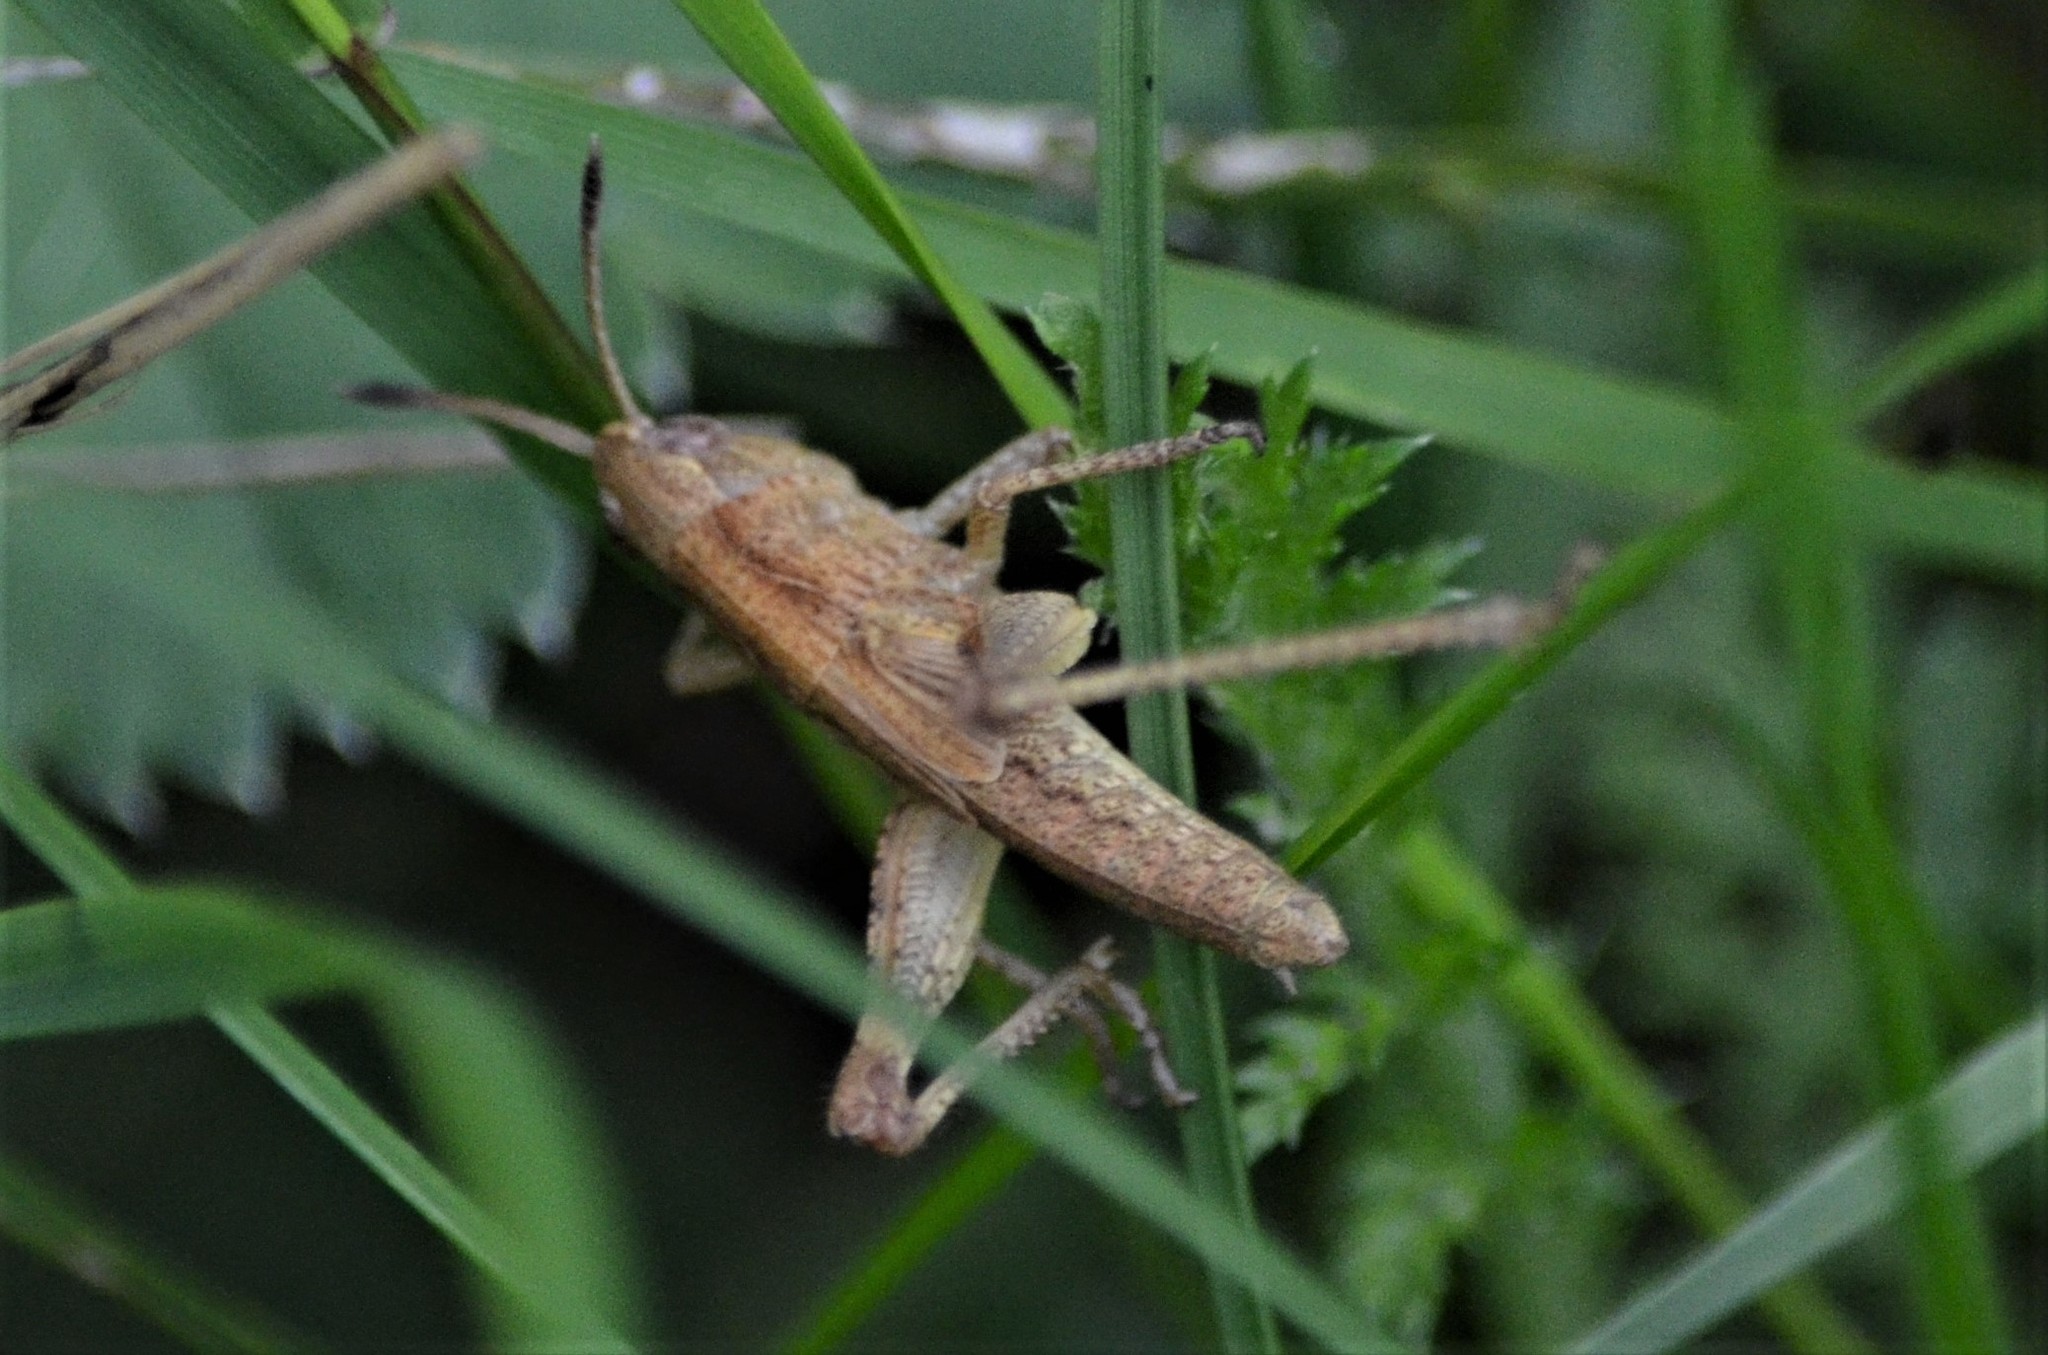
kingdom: Animalia
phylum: Arthropoda
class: Insecta
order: Orthoptera
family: Acrididae
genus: Gomphocerippus
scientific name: Gomphocerippus rufus
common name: Rufous grasshopper
